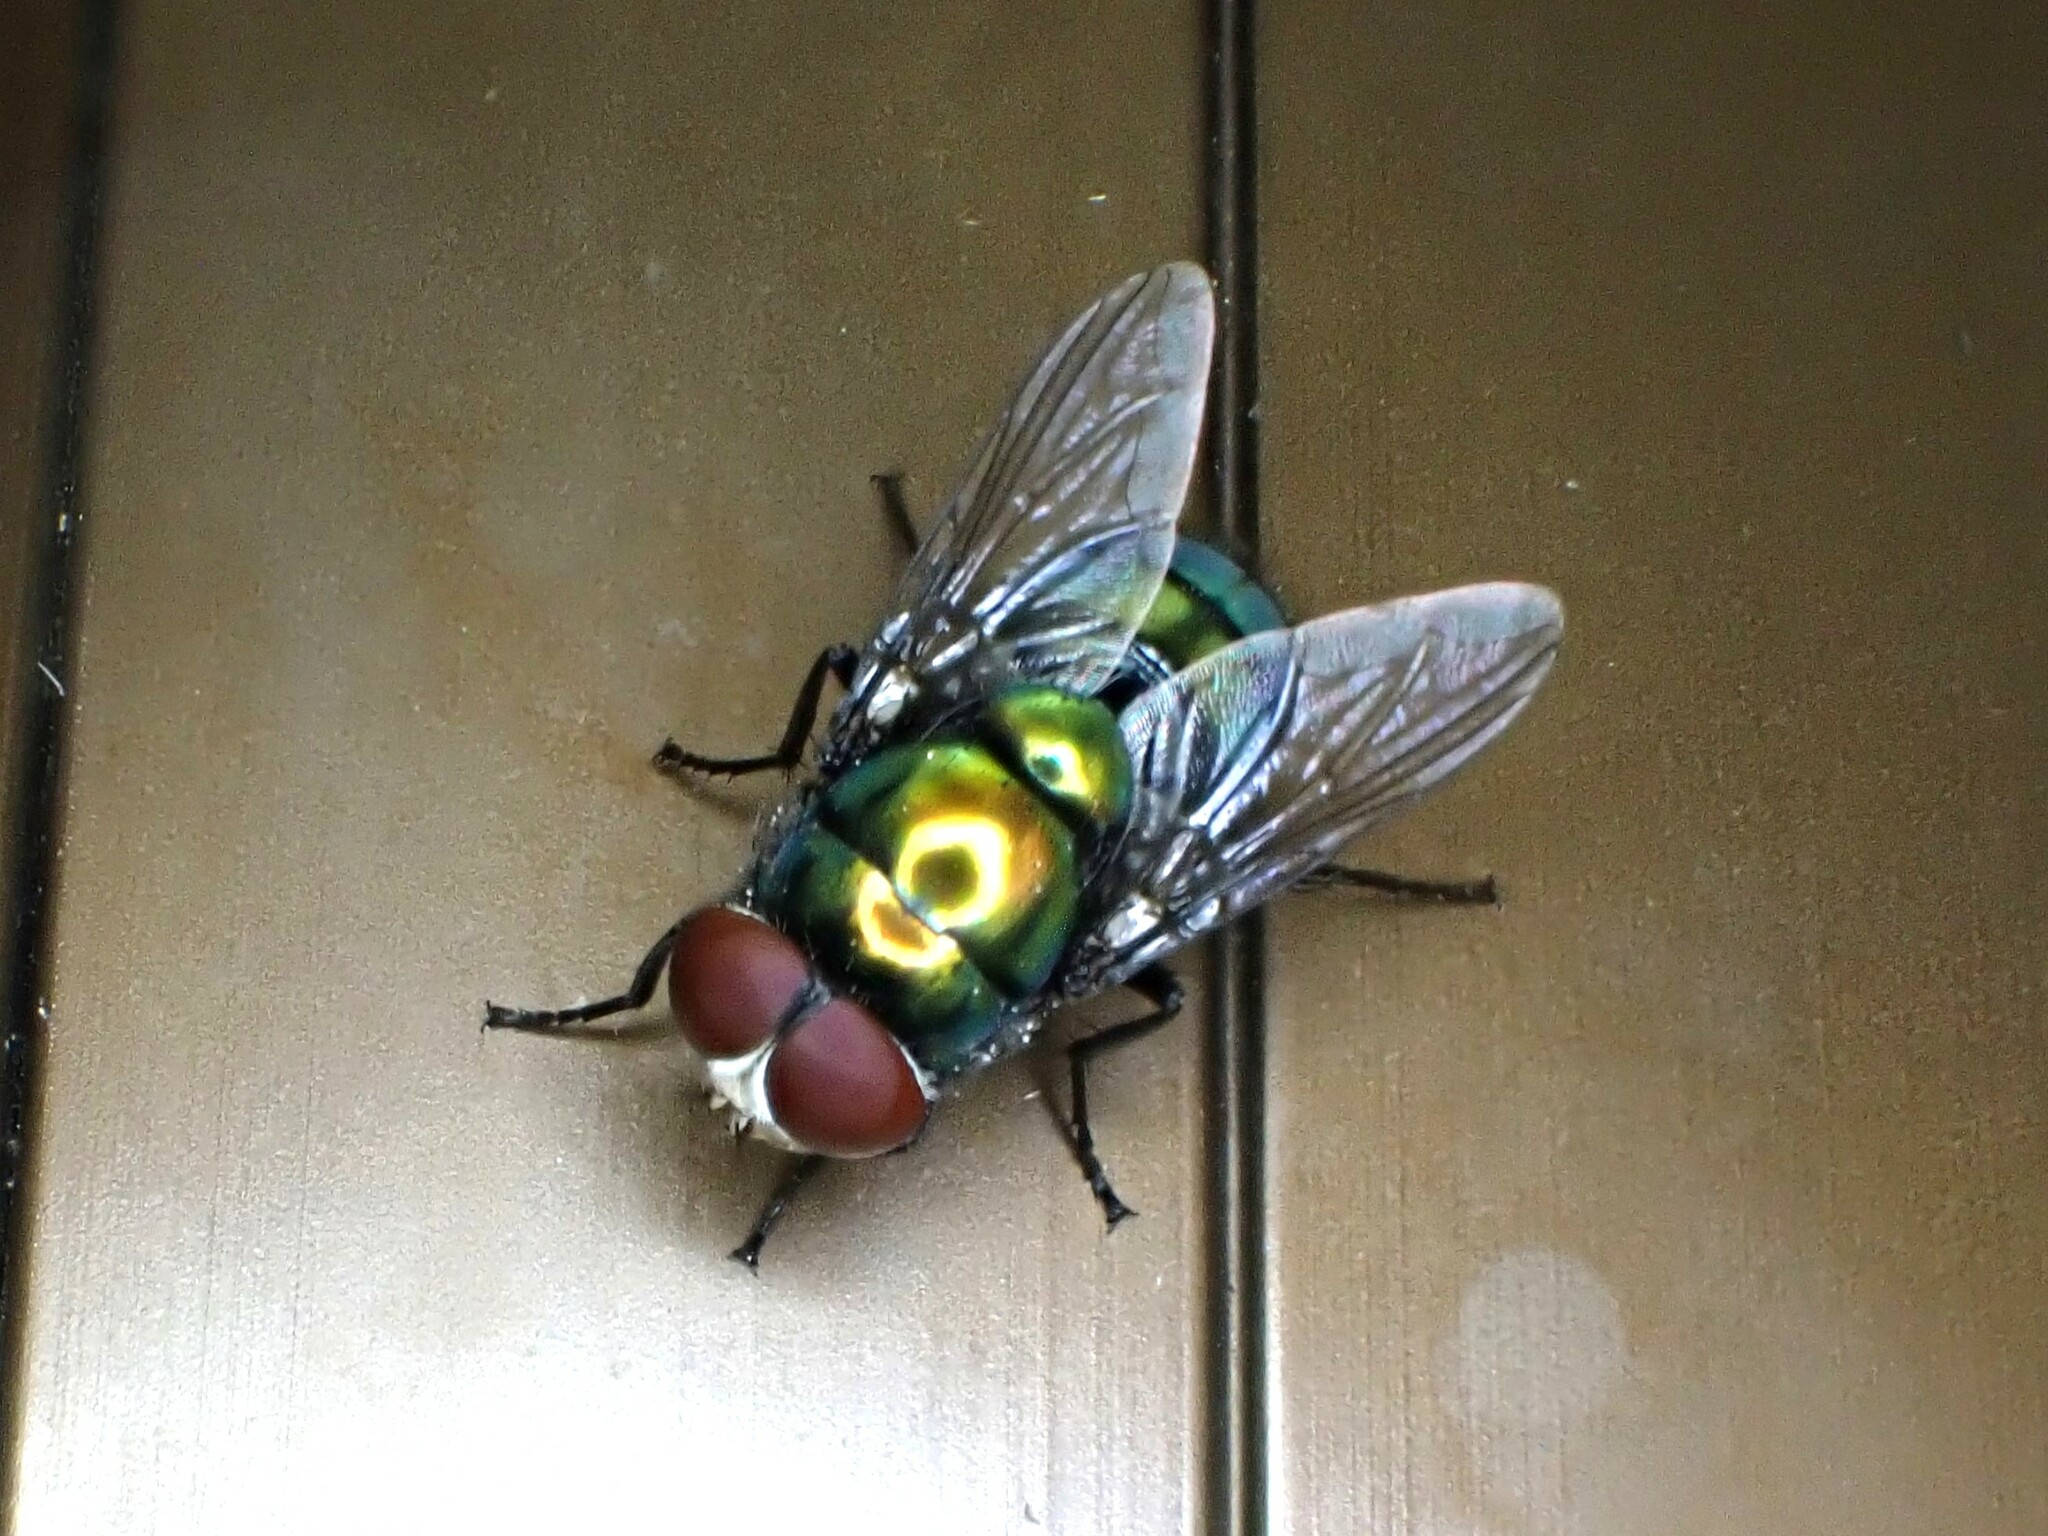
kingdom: Animalia
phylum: Arthropoda
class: Insecta
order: Diptera
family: Calliphoridae
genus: Chrysomya
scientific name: Chrysomya rufifacies
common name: Blow fly
